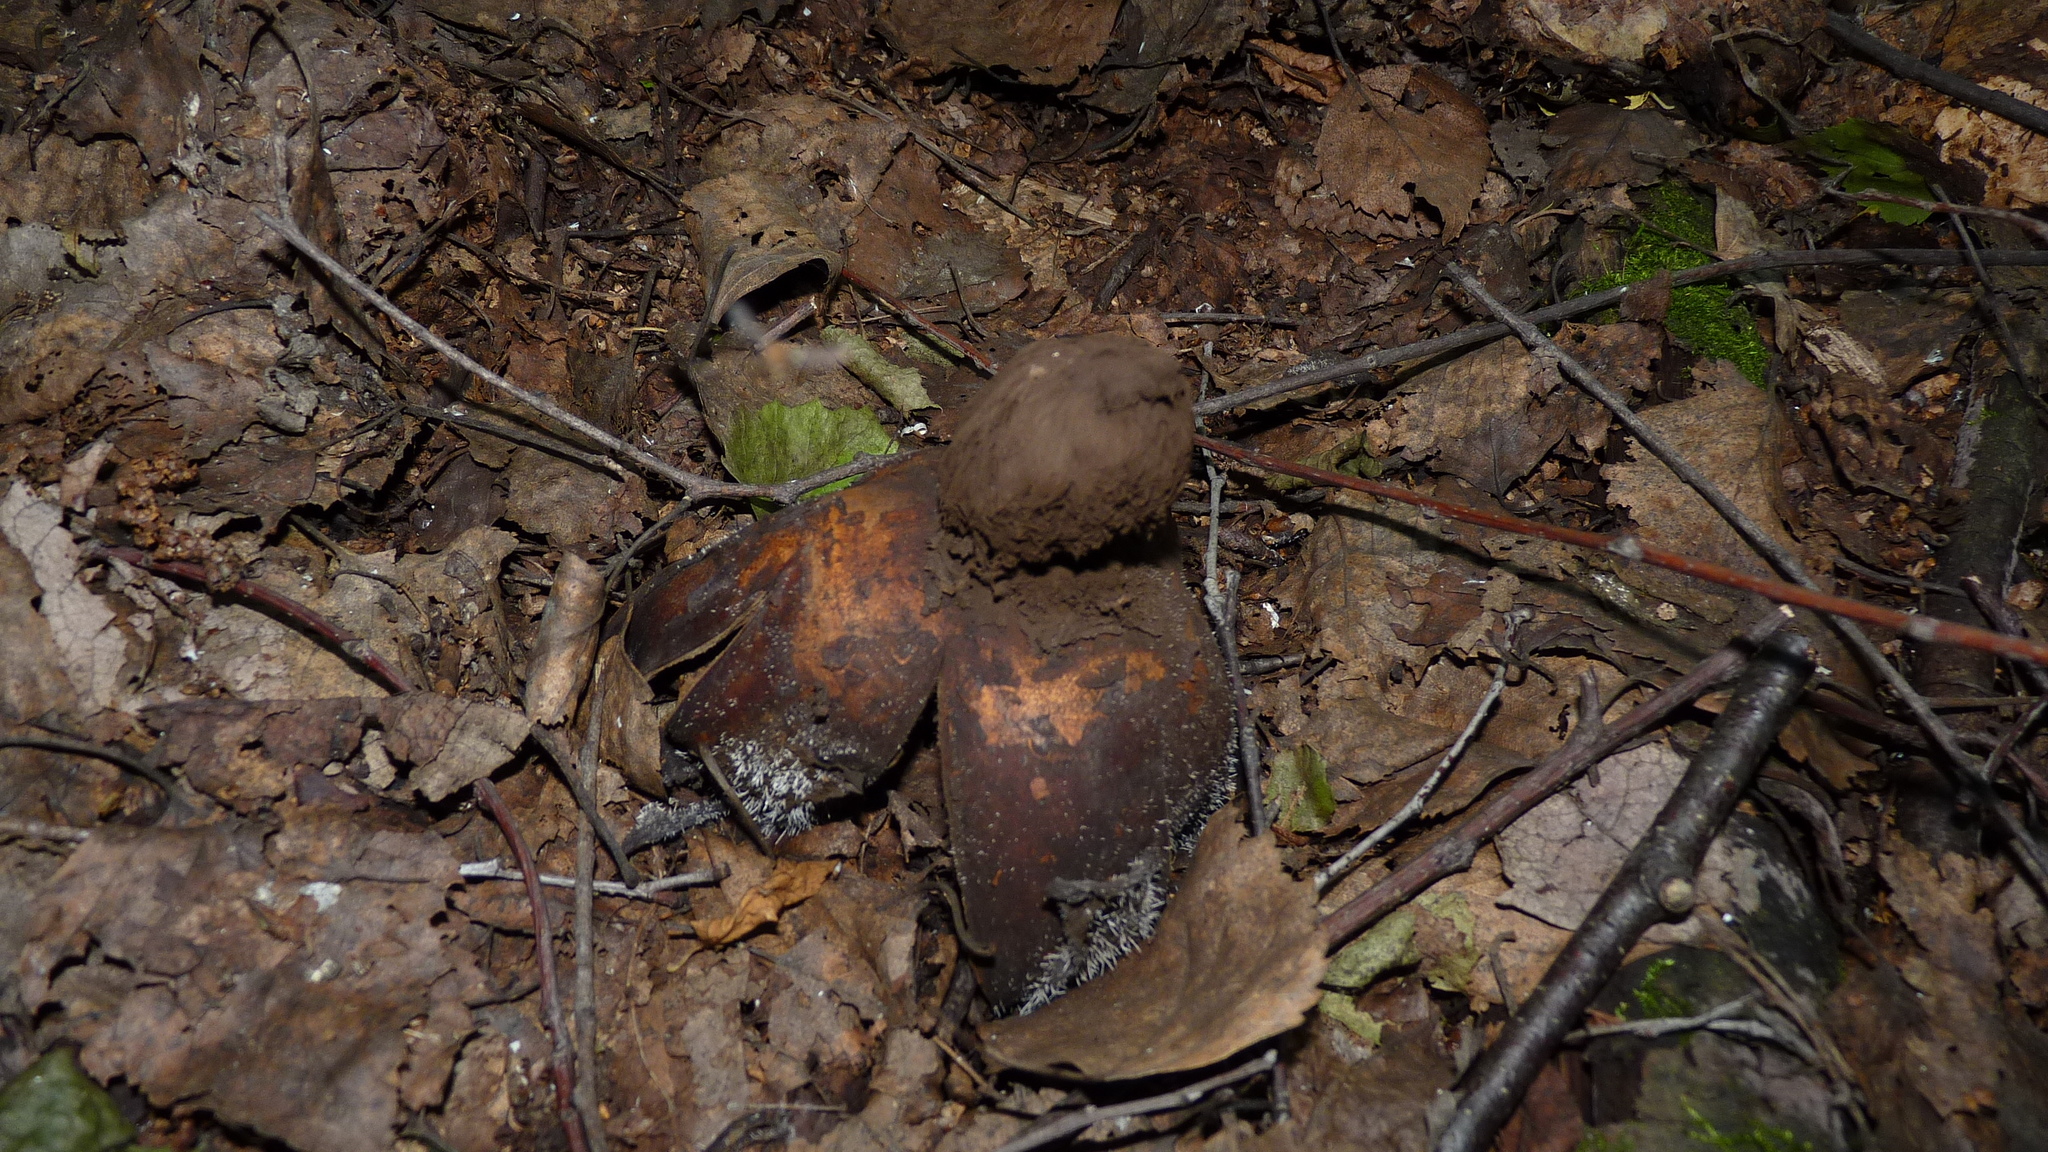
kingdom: Fungi
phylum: Basidiomycota
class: Agaricomycetes
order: Geastrales
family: Geastraceae
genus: Geastrum
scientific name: Geastrum melanocephalum
